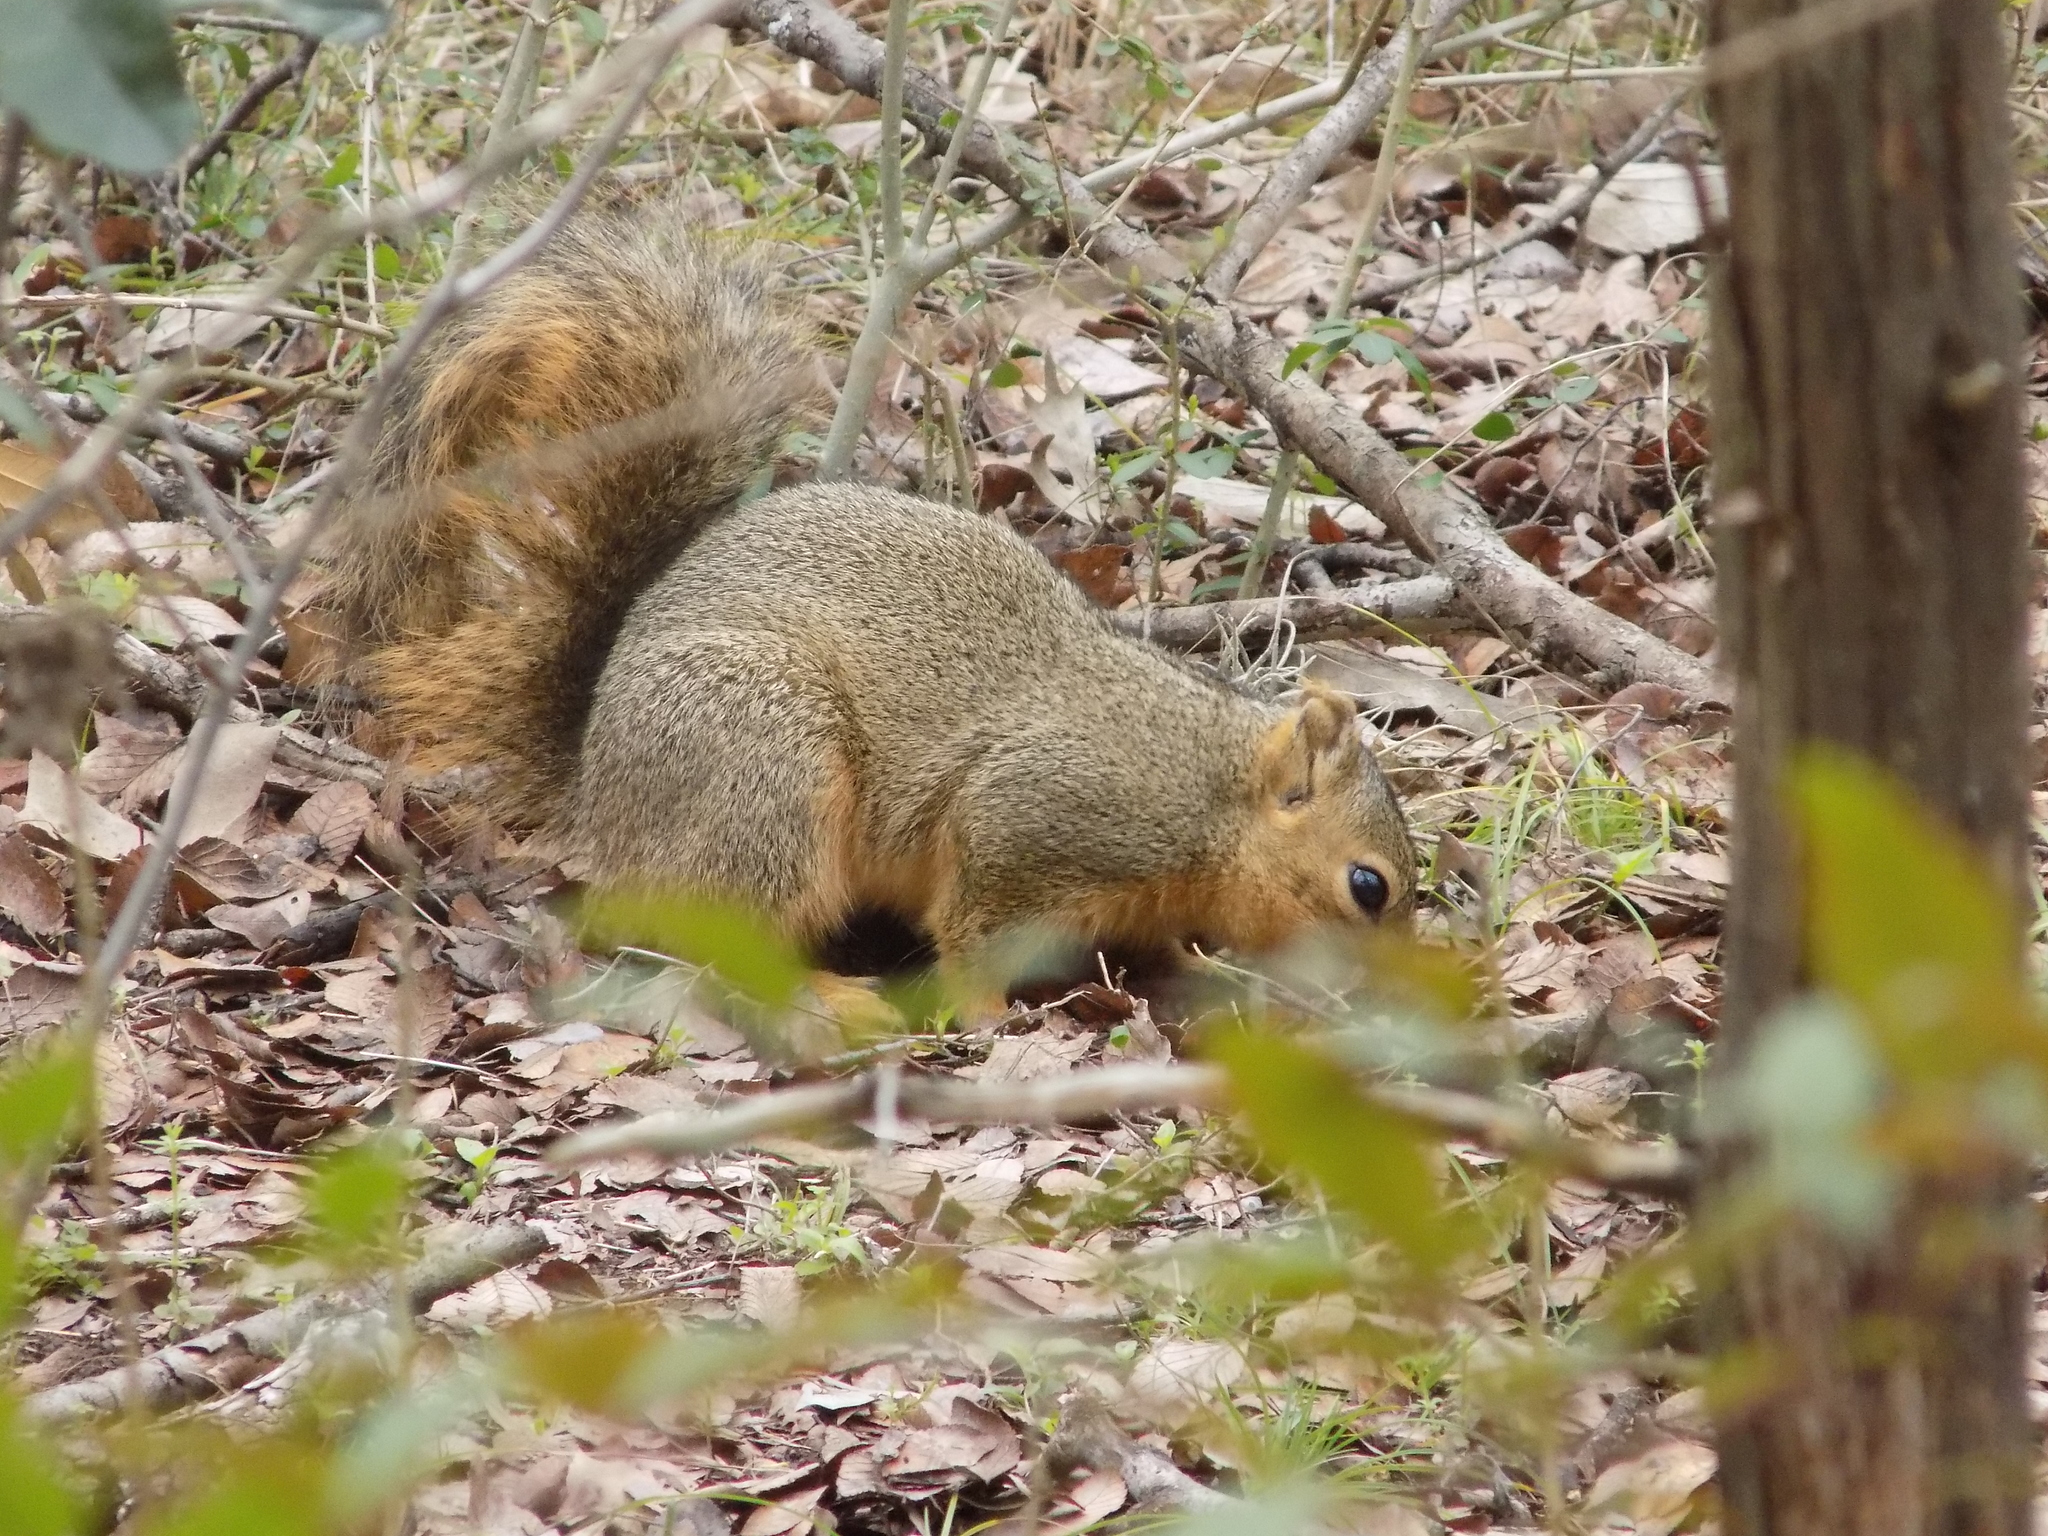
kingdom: Animalia
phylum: Chordata
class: Mammalia
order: Rodentia
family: Sciuridae
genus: Sciurus
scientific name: Sciurus niger
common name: Fox squirrel
